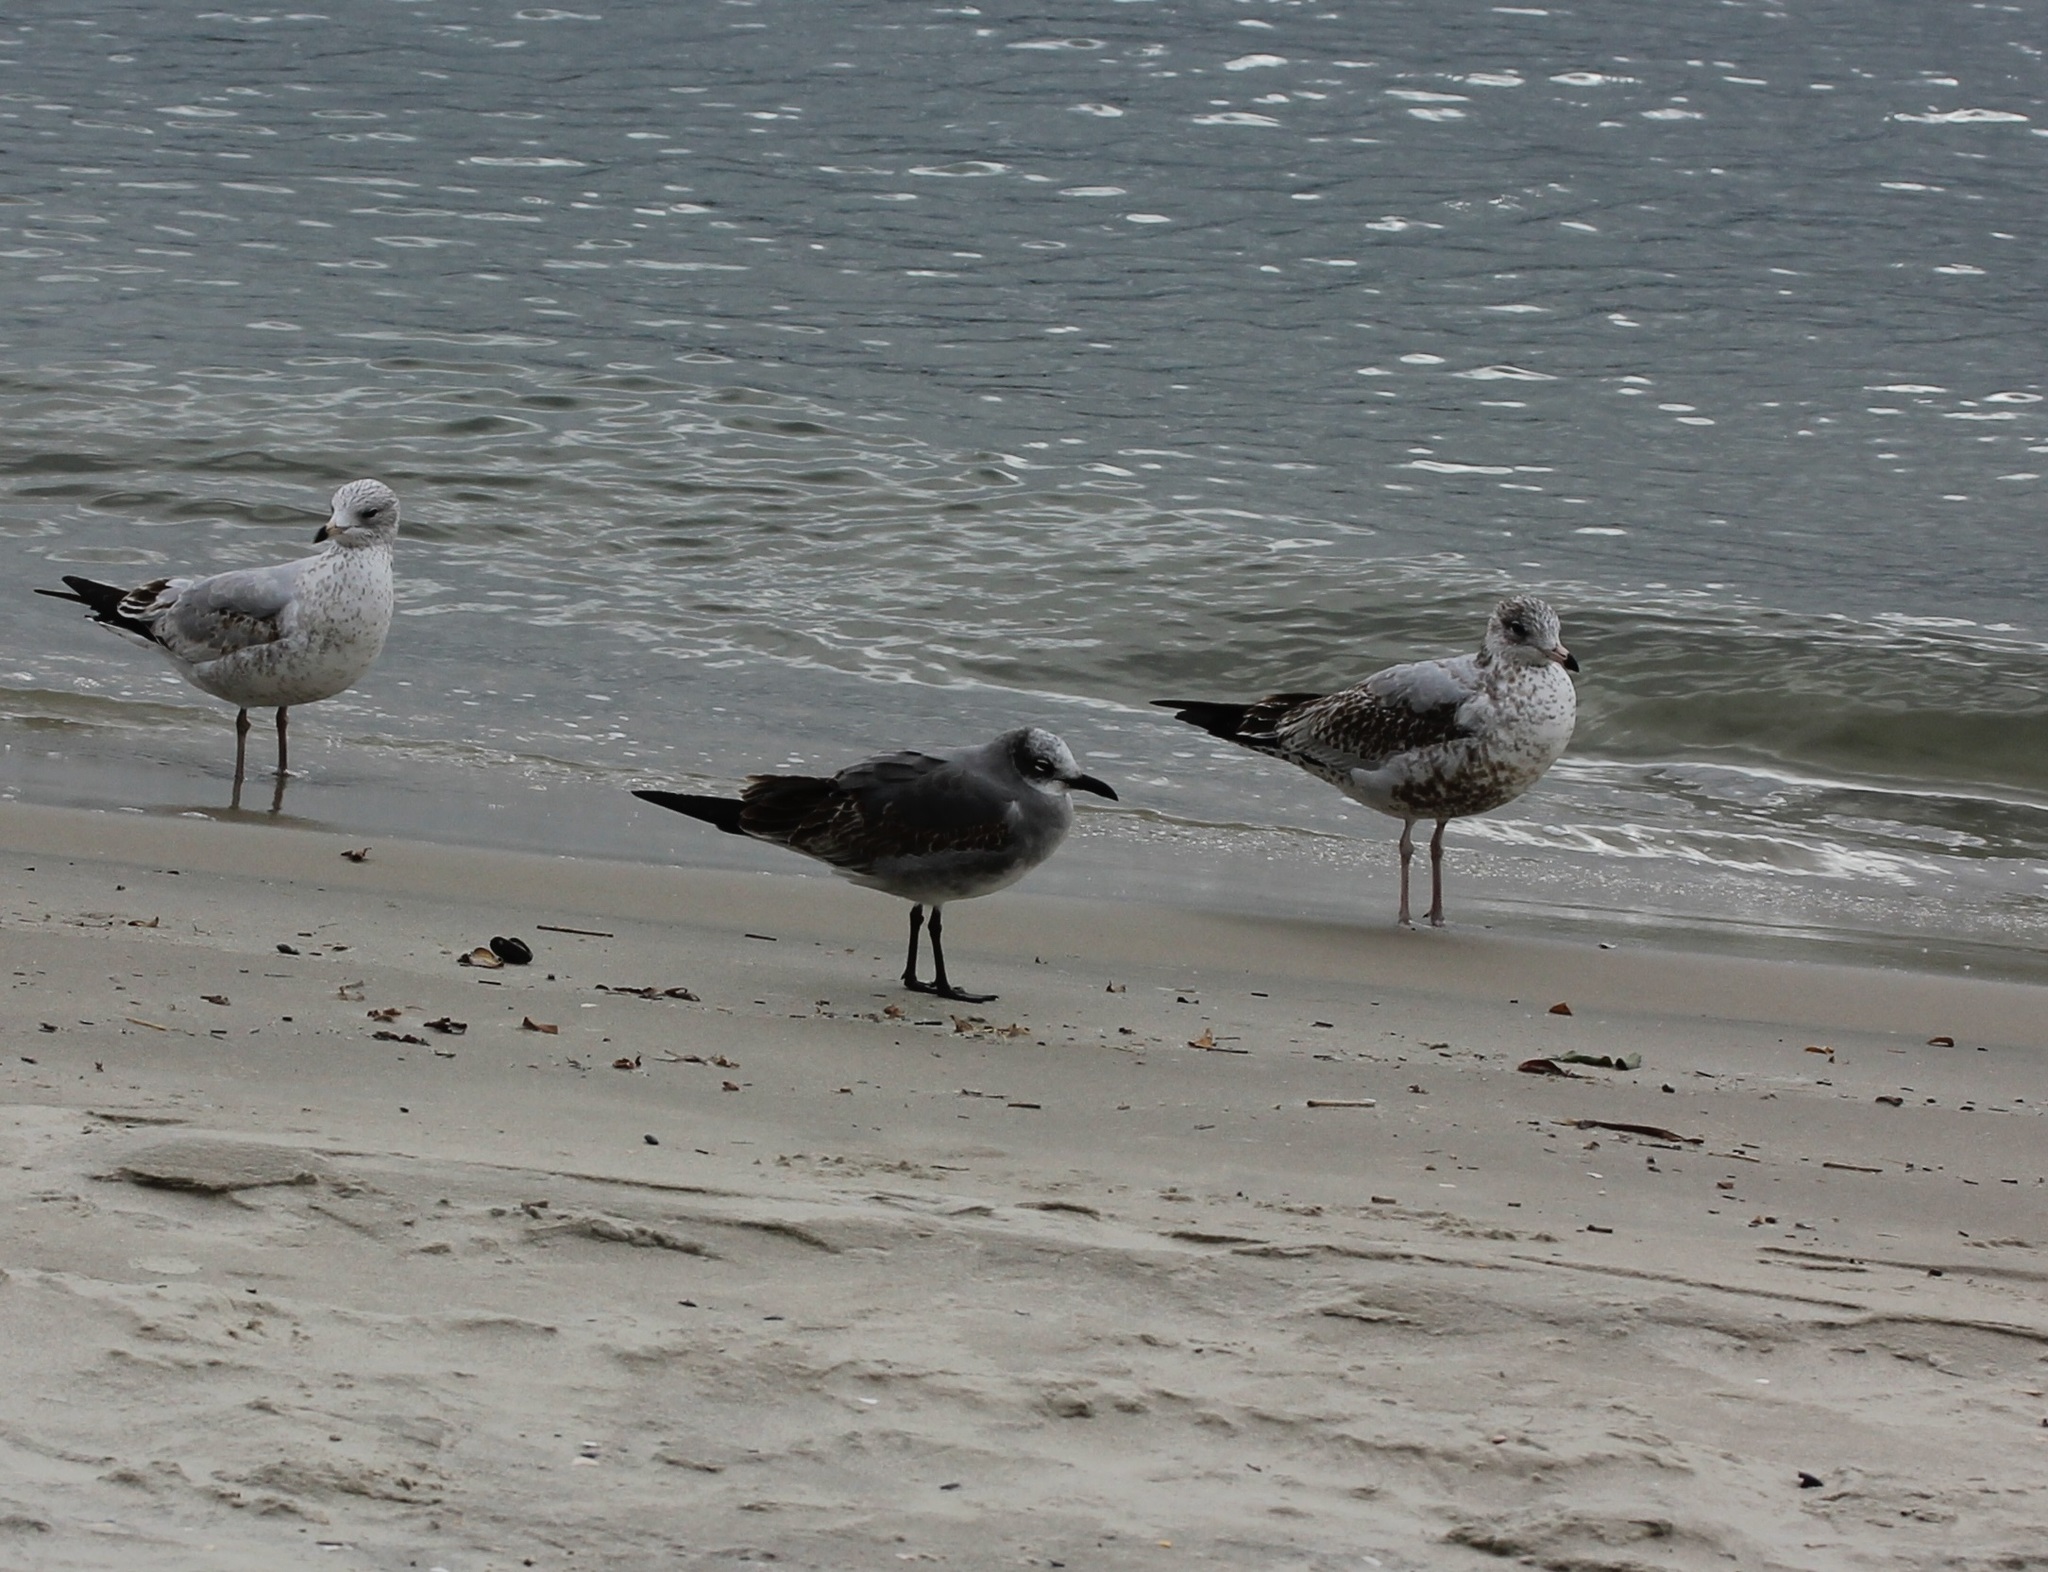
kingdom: Animalia
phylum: Chordata
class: Aves
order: Charadriiformes
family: Laridae
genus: Leucophaeus
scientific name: Leucophaeus atricilla
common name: Laughing gull
